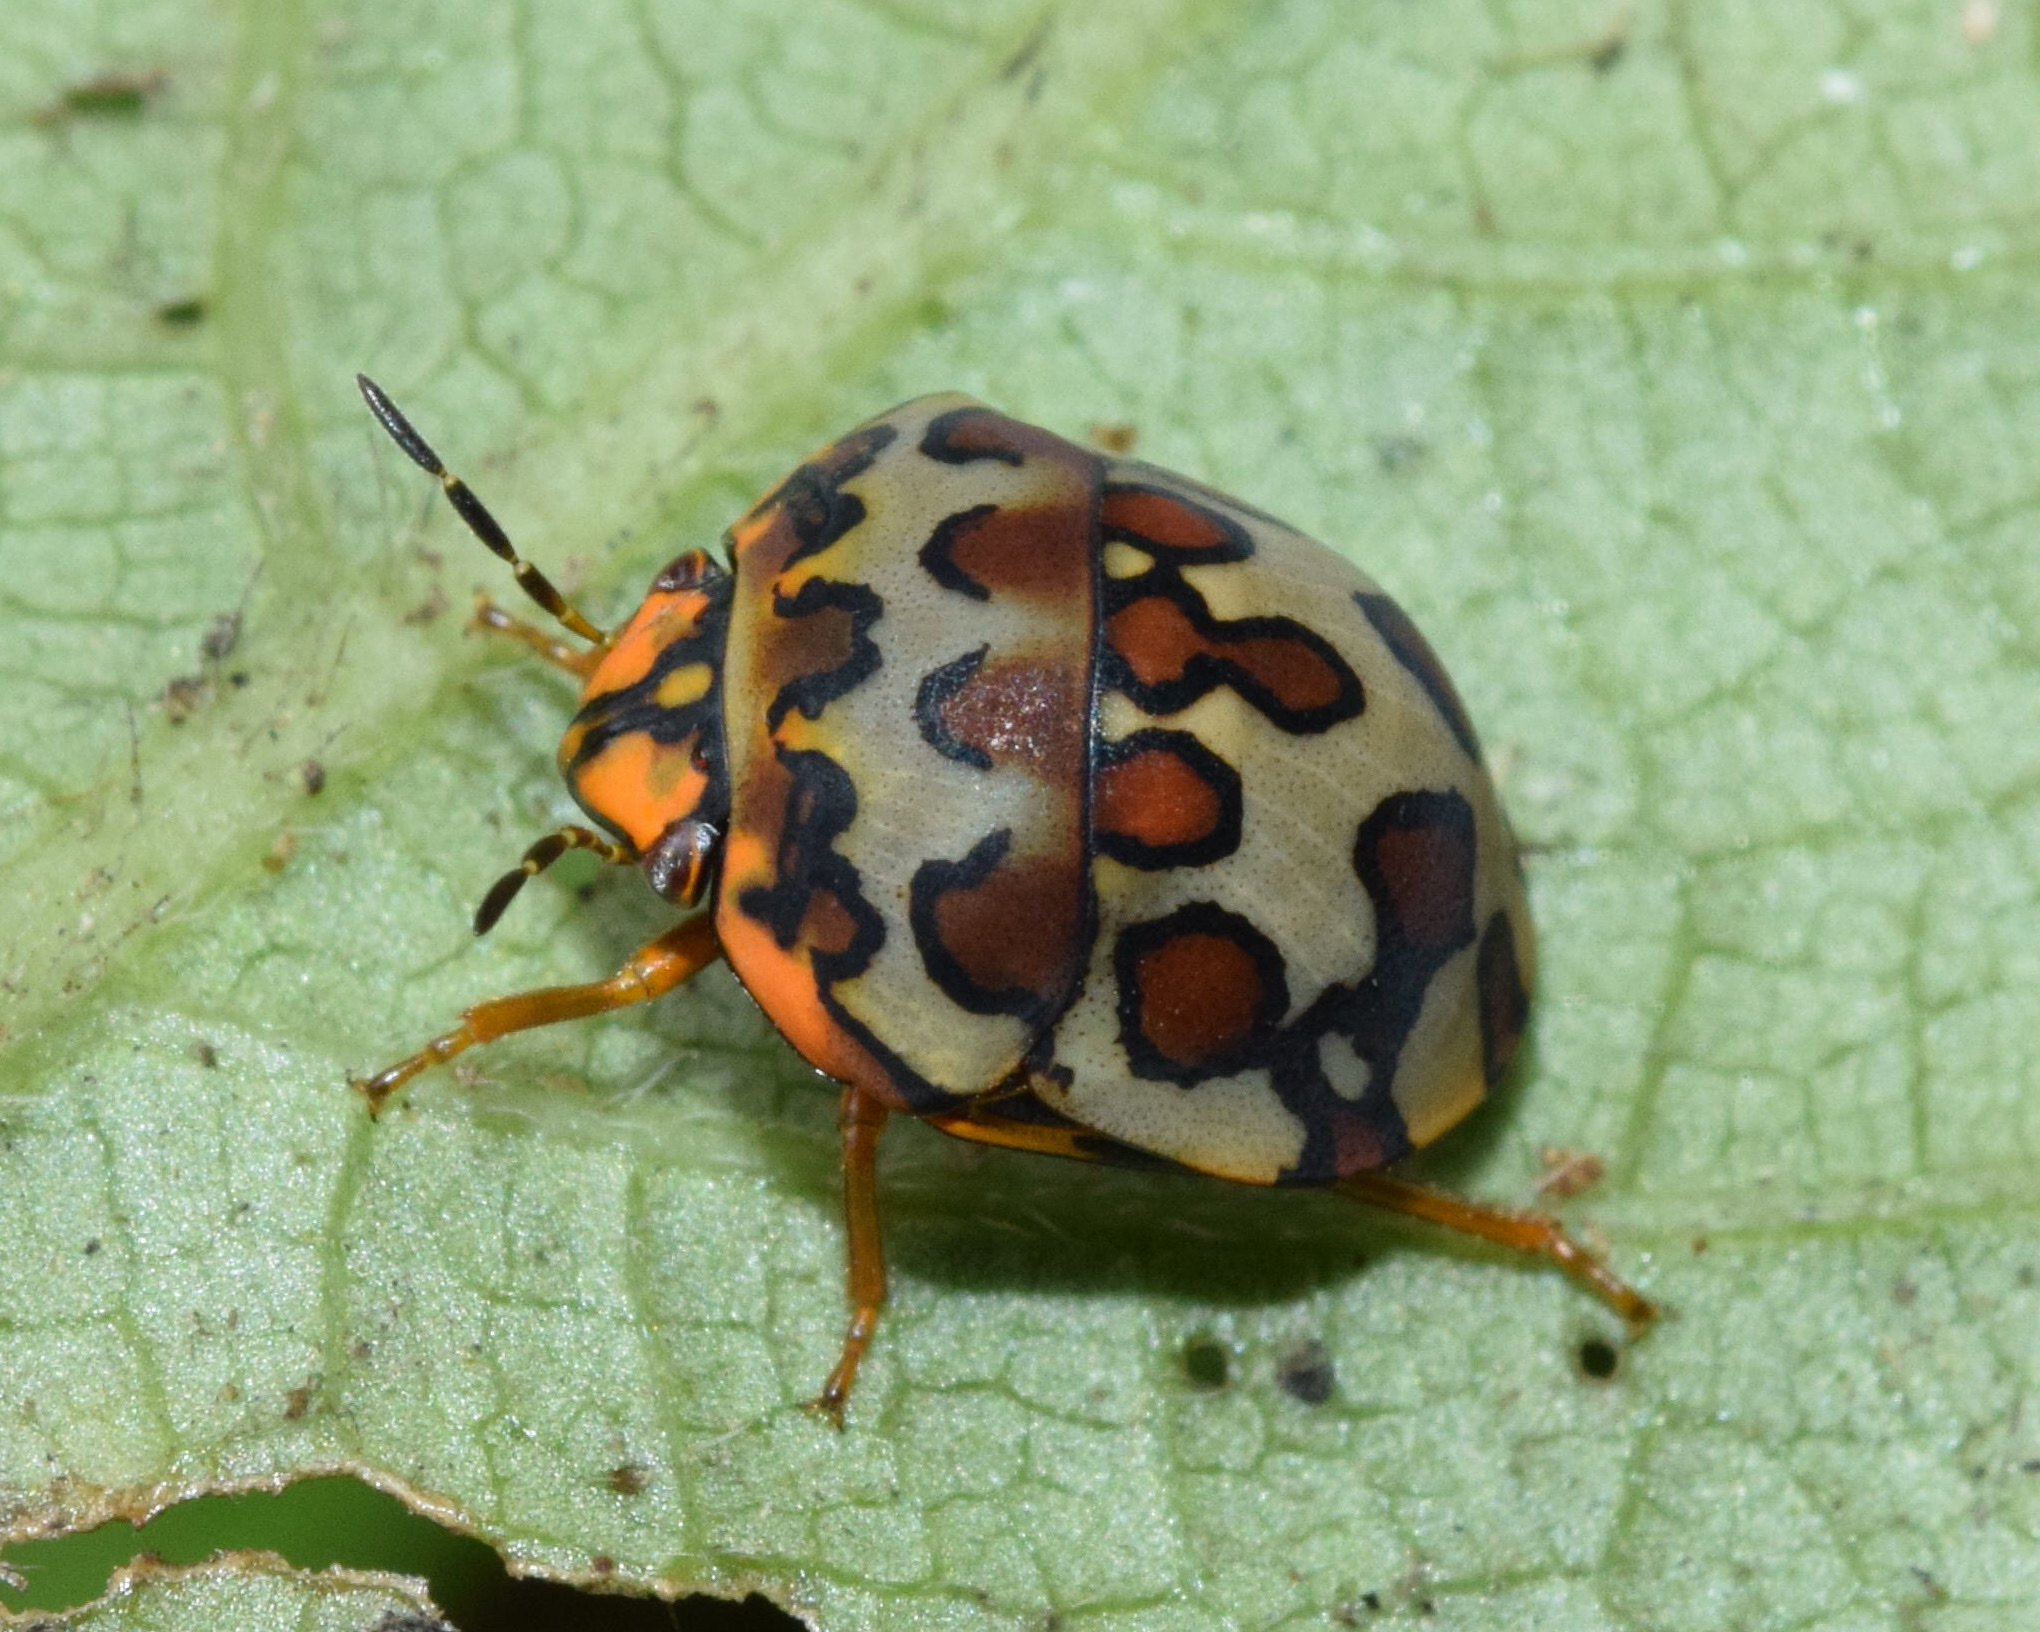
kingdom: Animalia
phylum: Arthropoda
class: Insecta
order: Hemiptera
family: Scutelleridae
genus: Sphaerocoris
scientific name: Sphaerocoris
